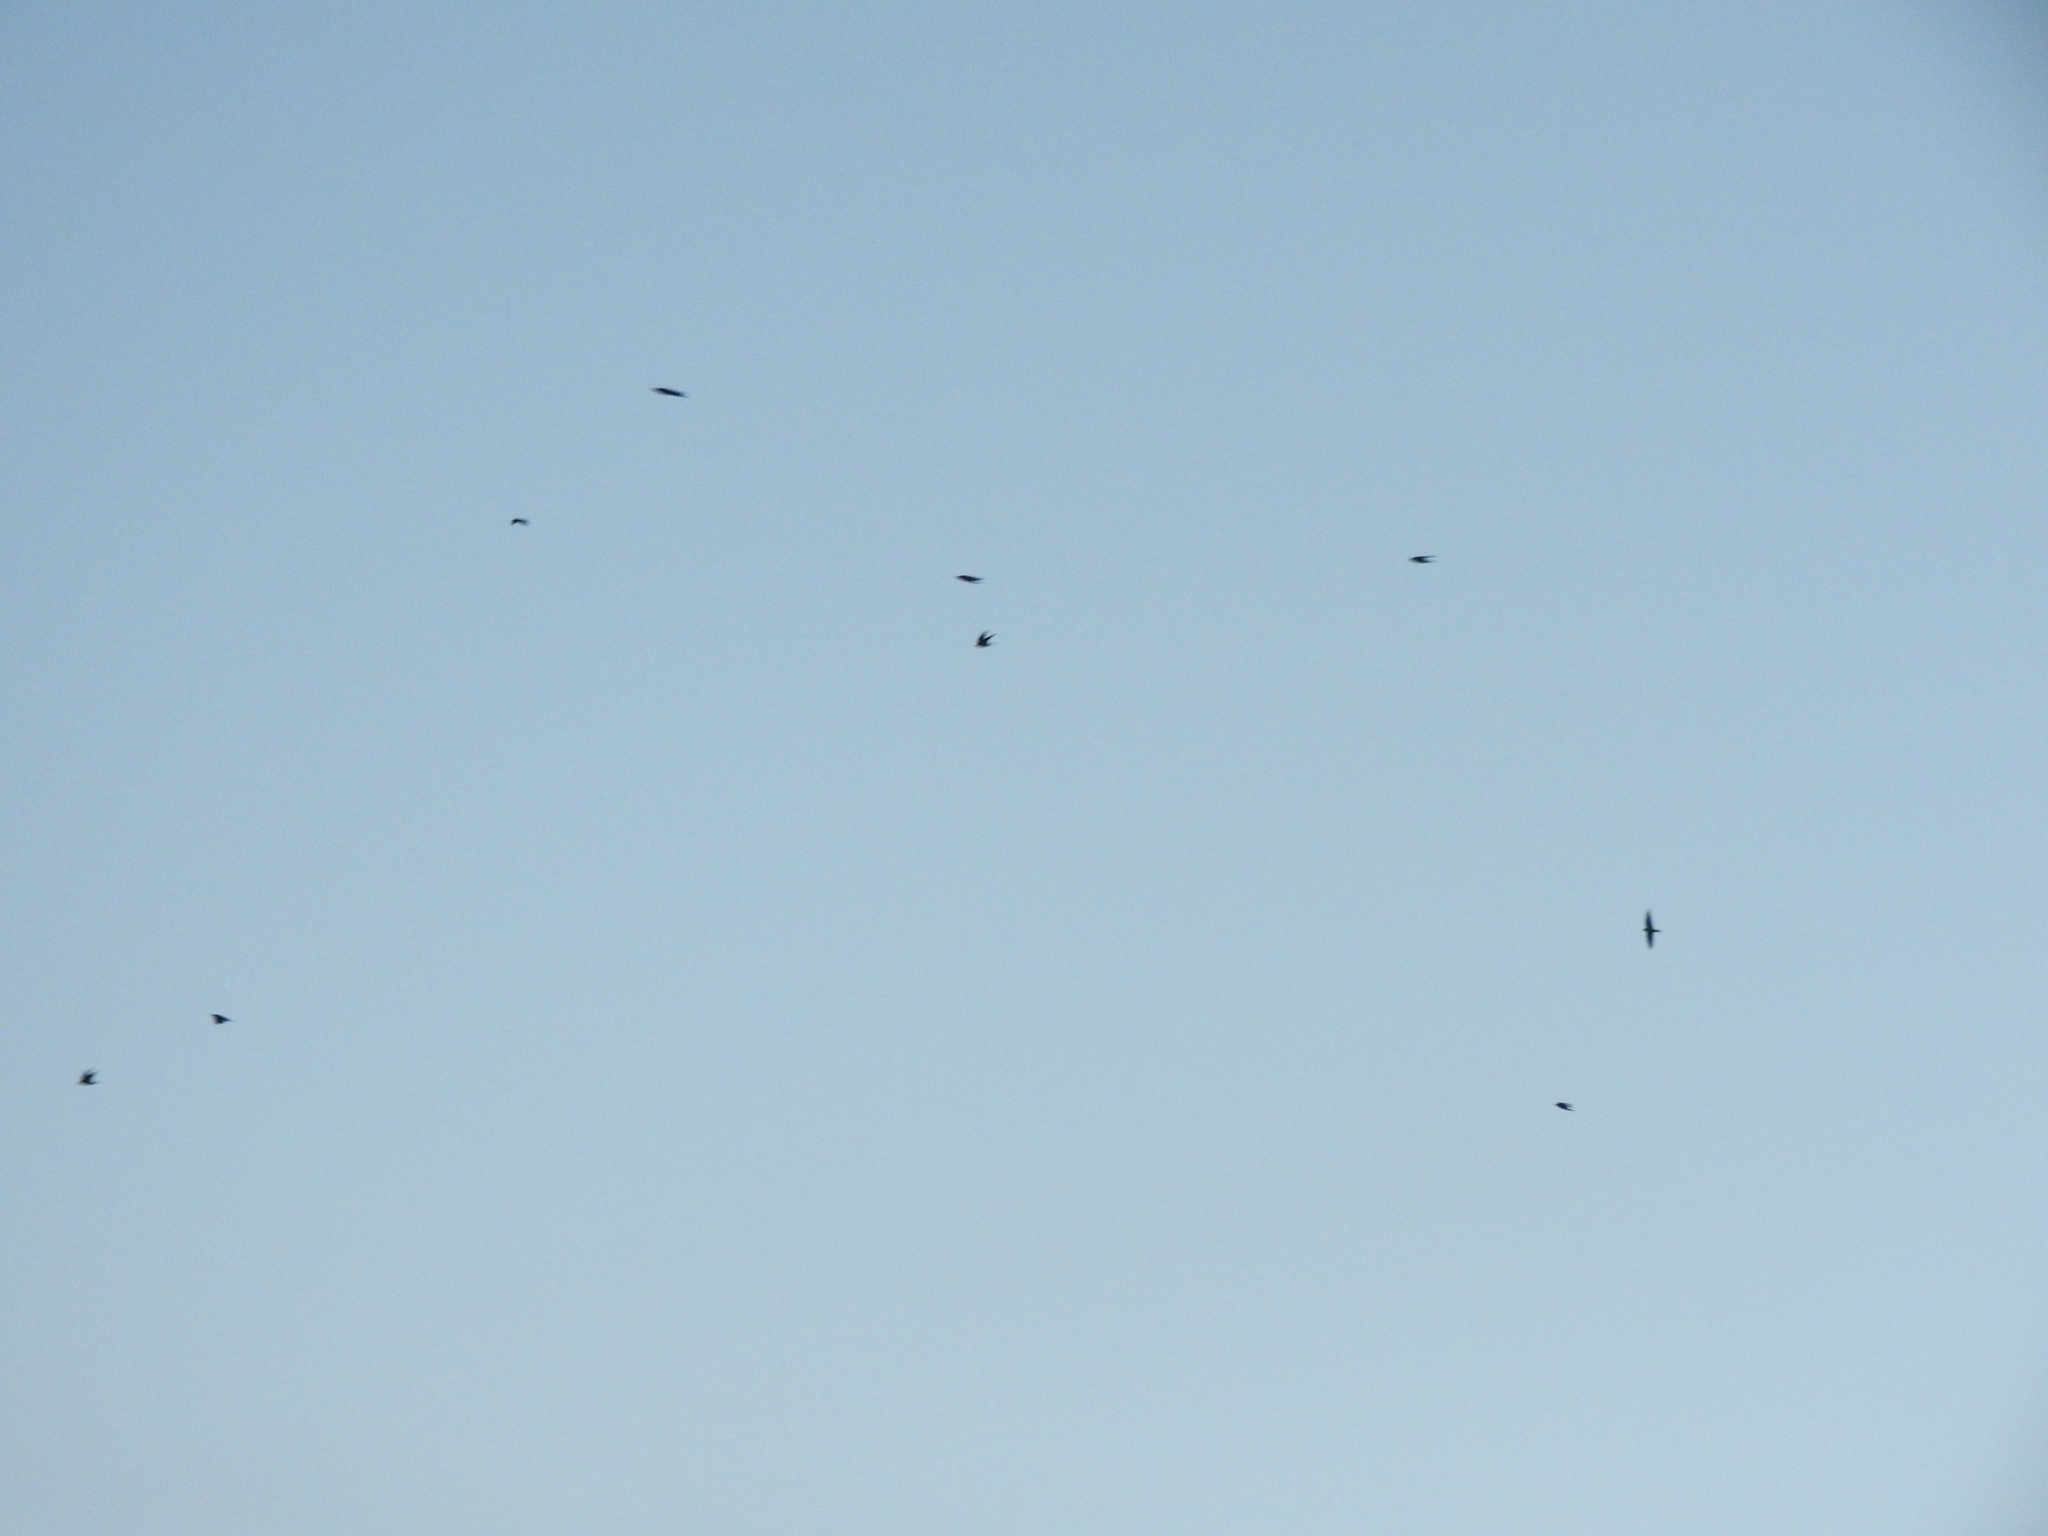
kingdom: Animalia
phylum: Chordata
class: Aves
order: Passeriformes
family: Hirundinidae
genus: Hirundo
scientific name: Hirundo rustica
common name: Barn swallow
